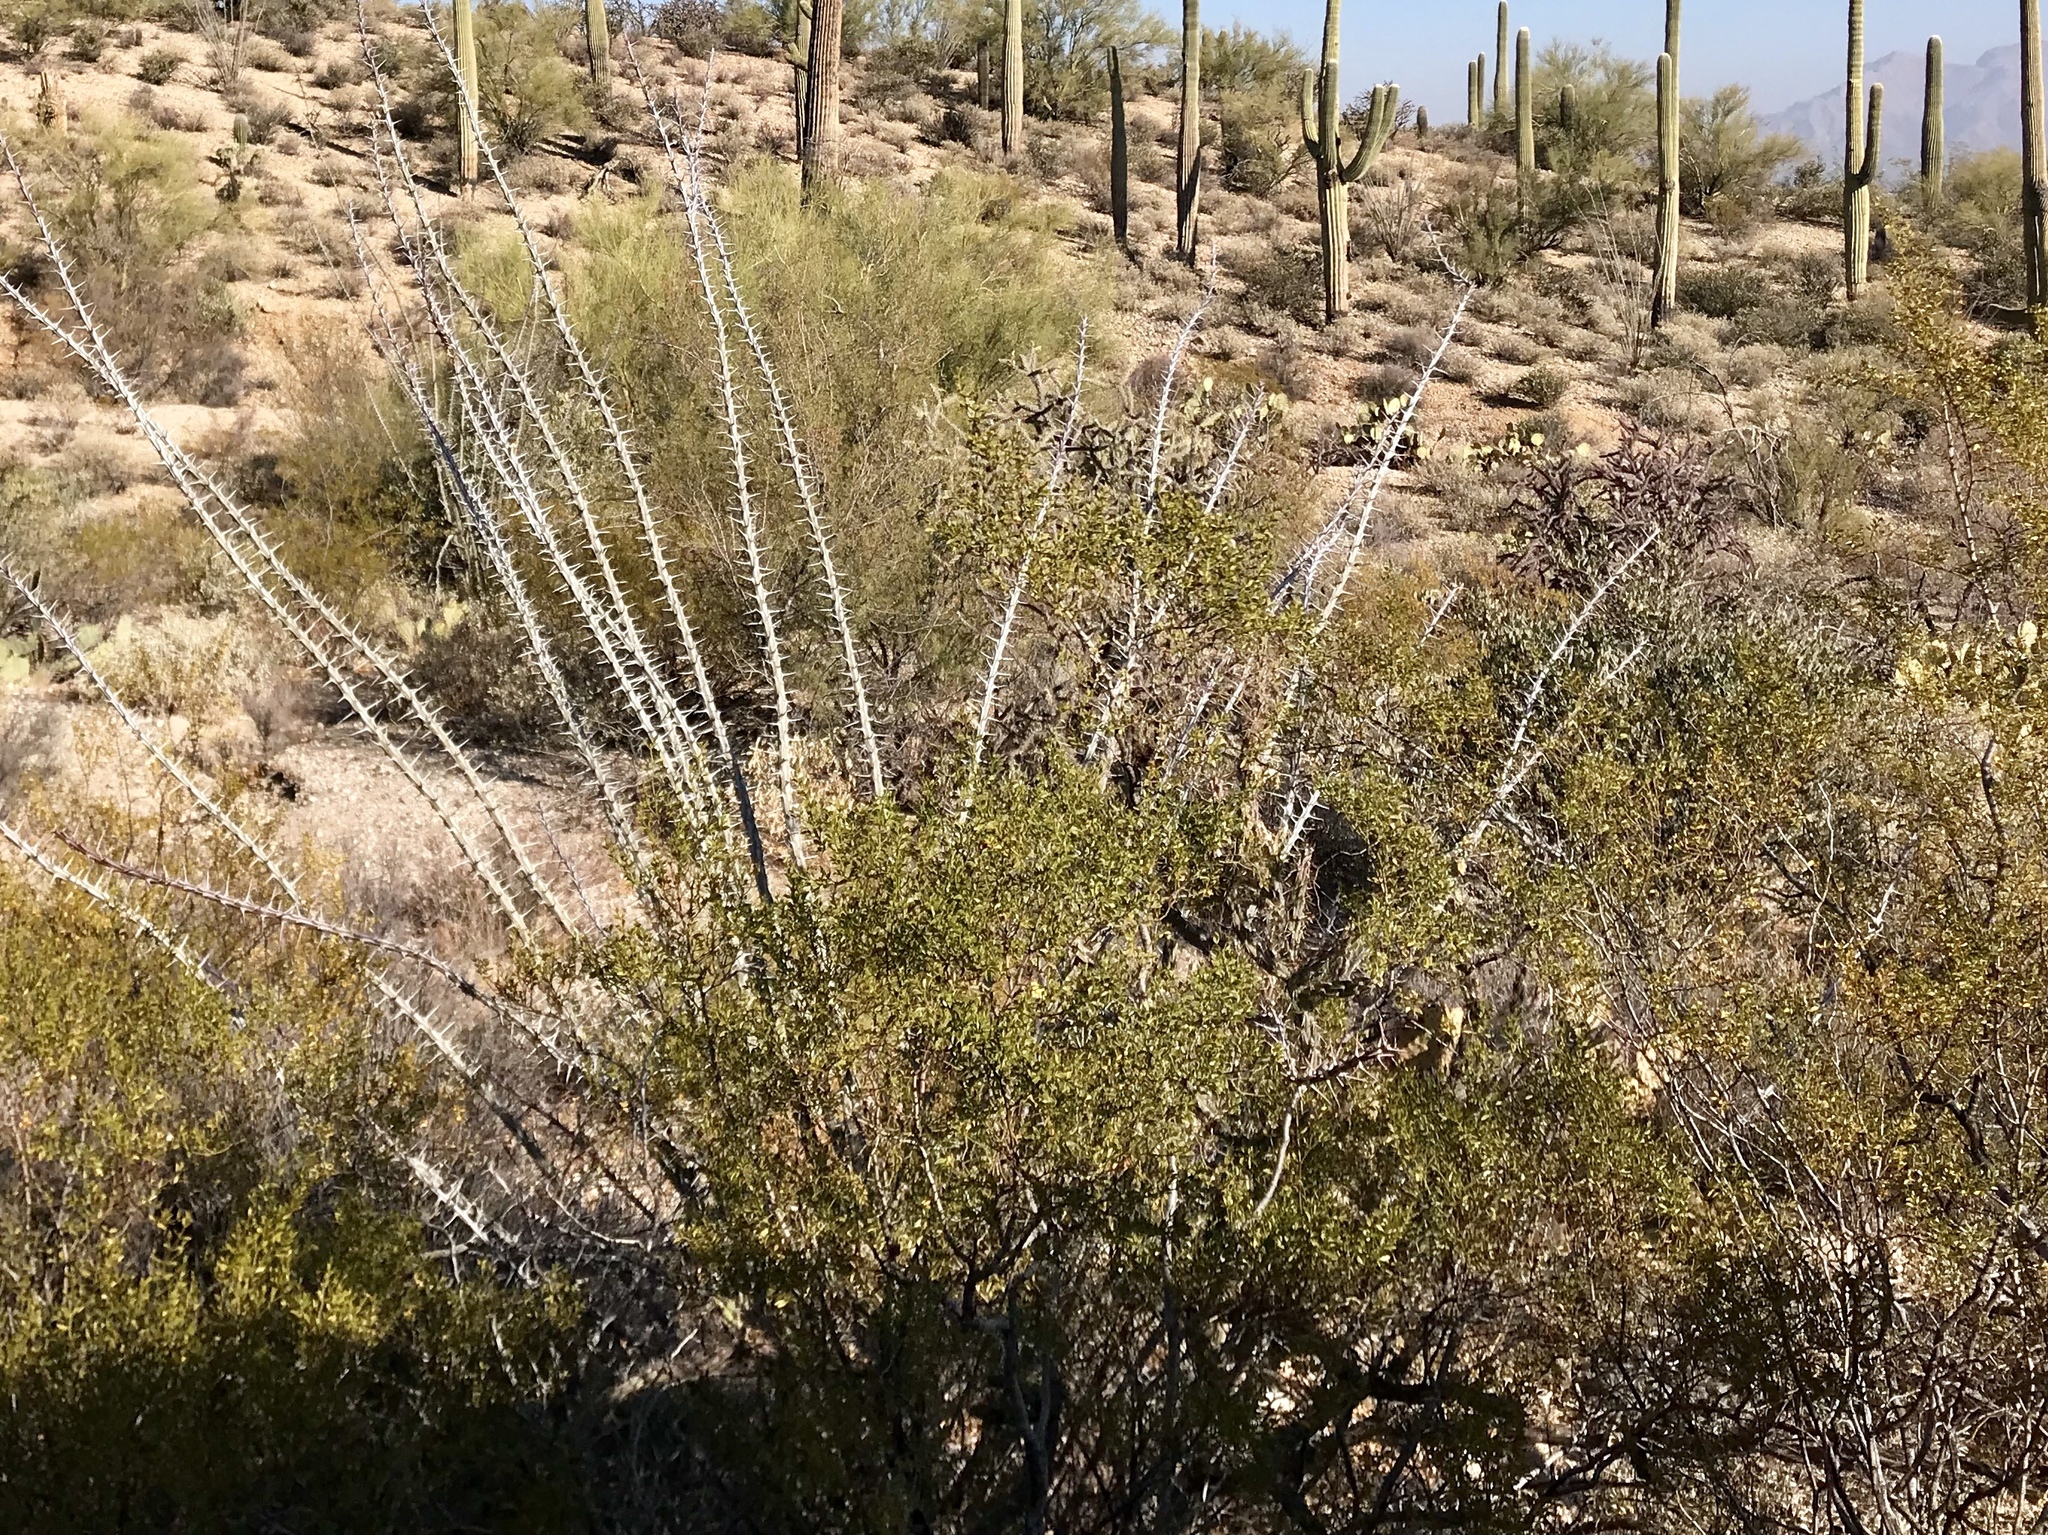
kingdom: Plantae
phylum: Tracheophyta
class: Magnoliopsida
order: Ericales
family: Fouquieriaceae
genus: Fouquieria
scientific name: Fouquieria splendens
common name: Vine-cactus
